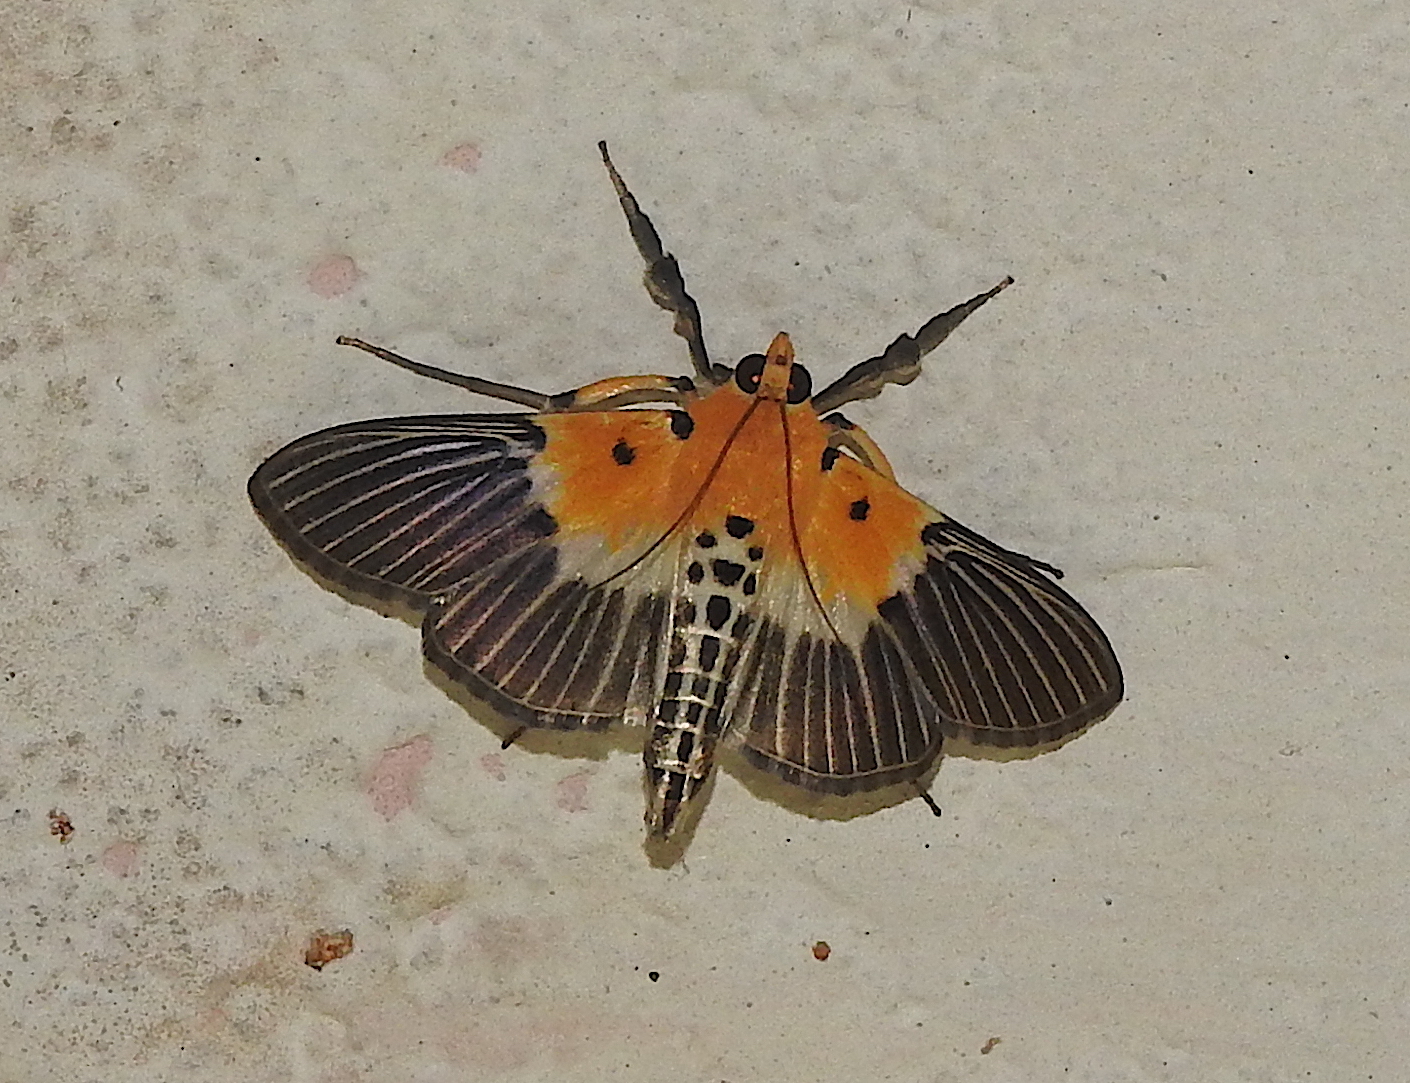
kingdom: Animalia
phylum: Arthropoda
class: Insecta
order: Lepidoptera
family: Crambidae
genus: Nevrina
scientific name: Nevrina procopia
